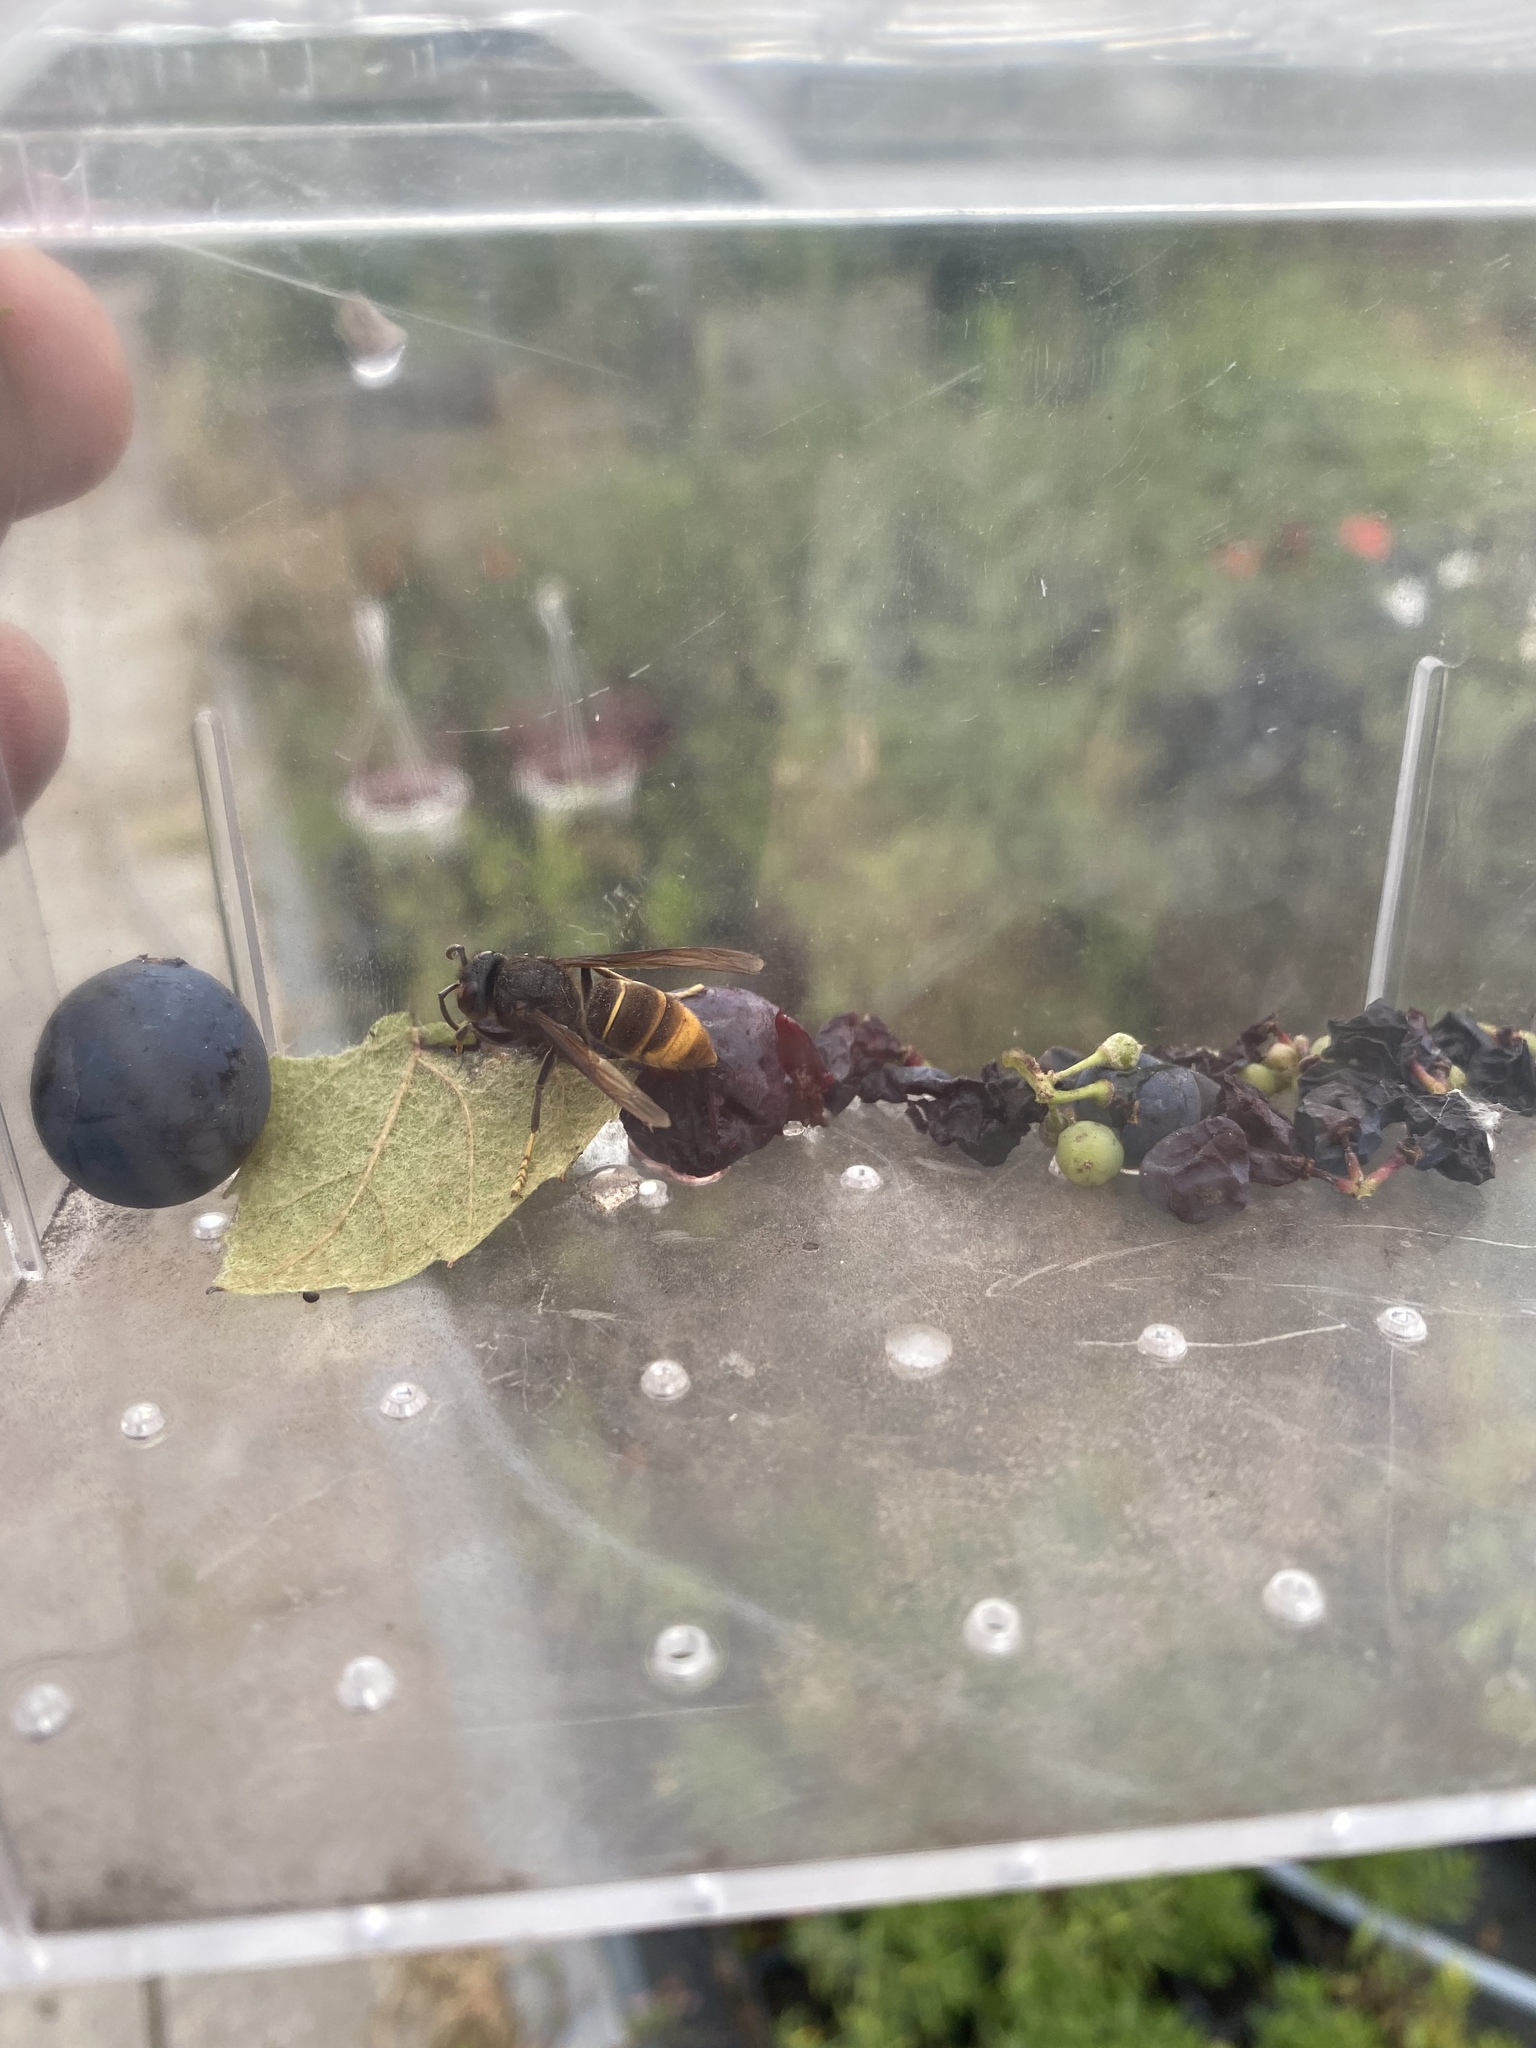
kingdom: Animalia
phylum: Arthropoda
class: Insecta
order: Hymenoptera
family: Vespidae
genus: Vespa
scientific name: Vespa velutina
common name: Asian hornet
